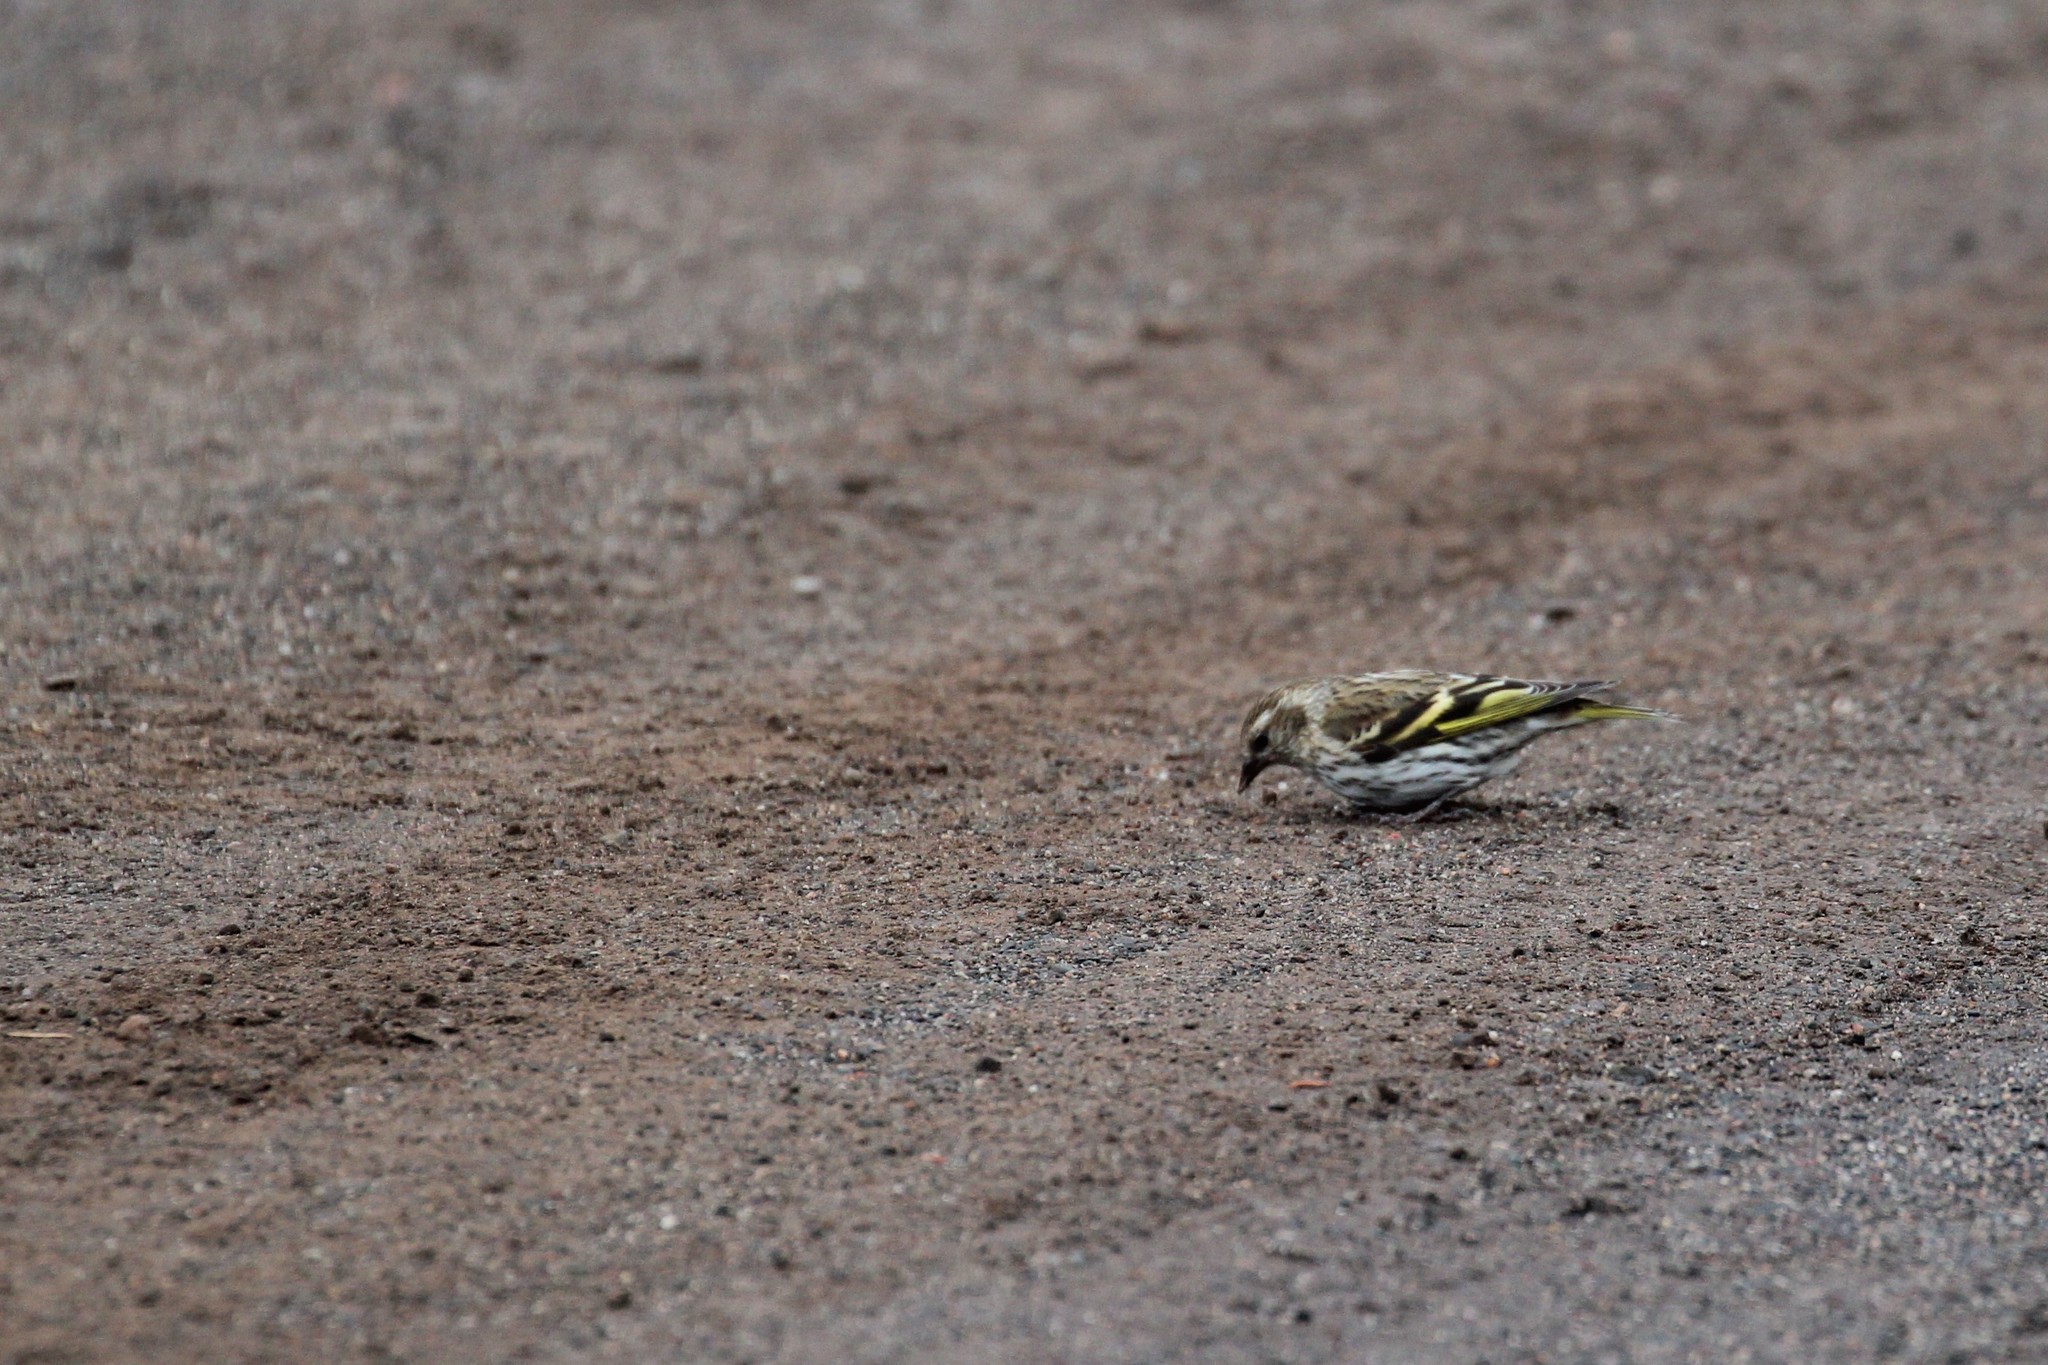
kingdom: Animalia
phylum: Chordata
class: Aves
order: Passeriformes
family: Fringillidae
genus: Spinus
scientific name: Spinus pinus
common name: Pine siskin
